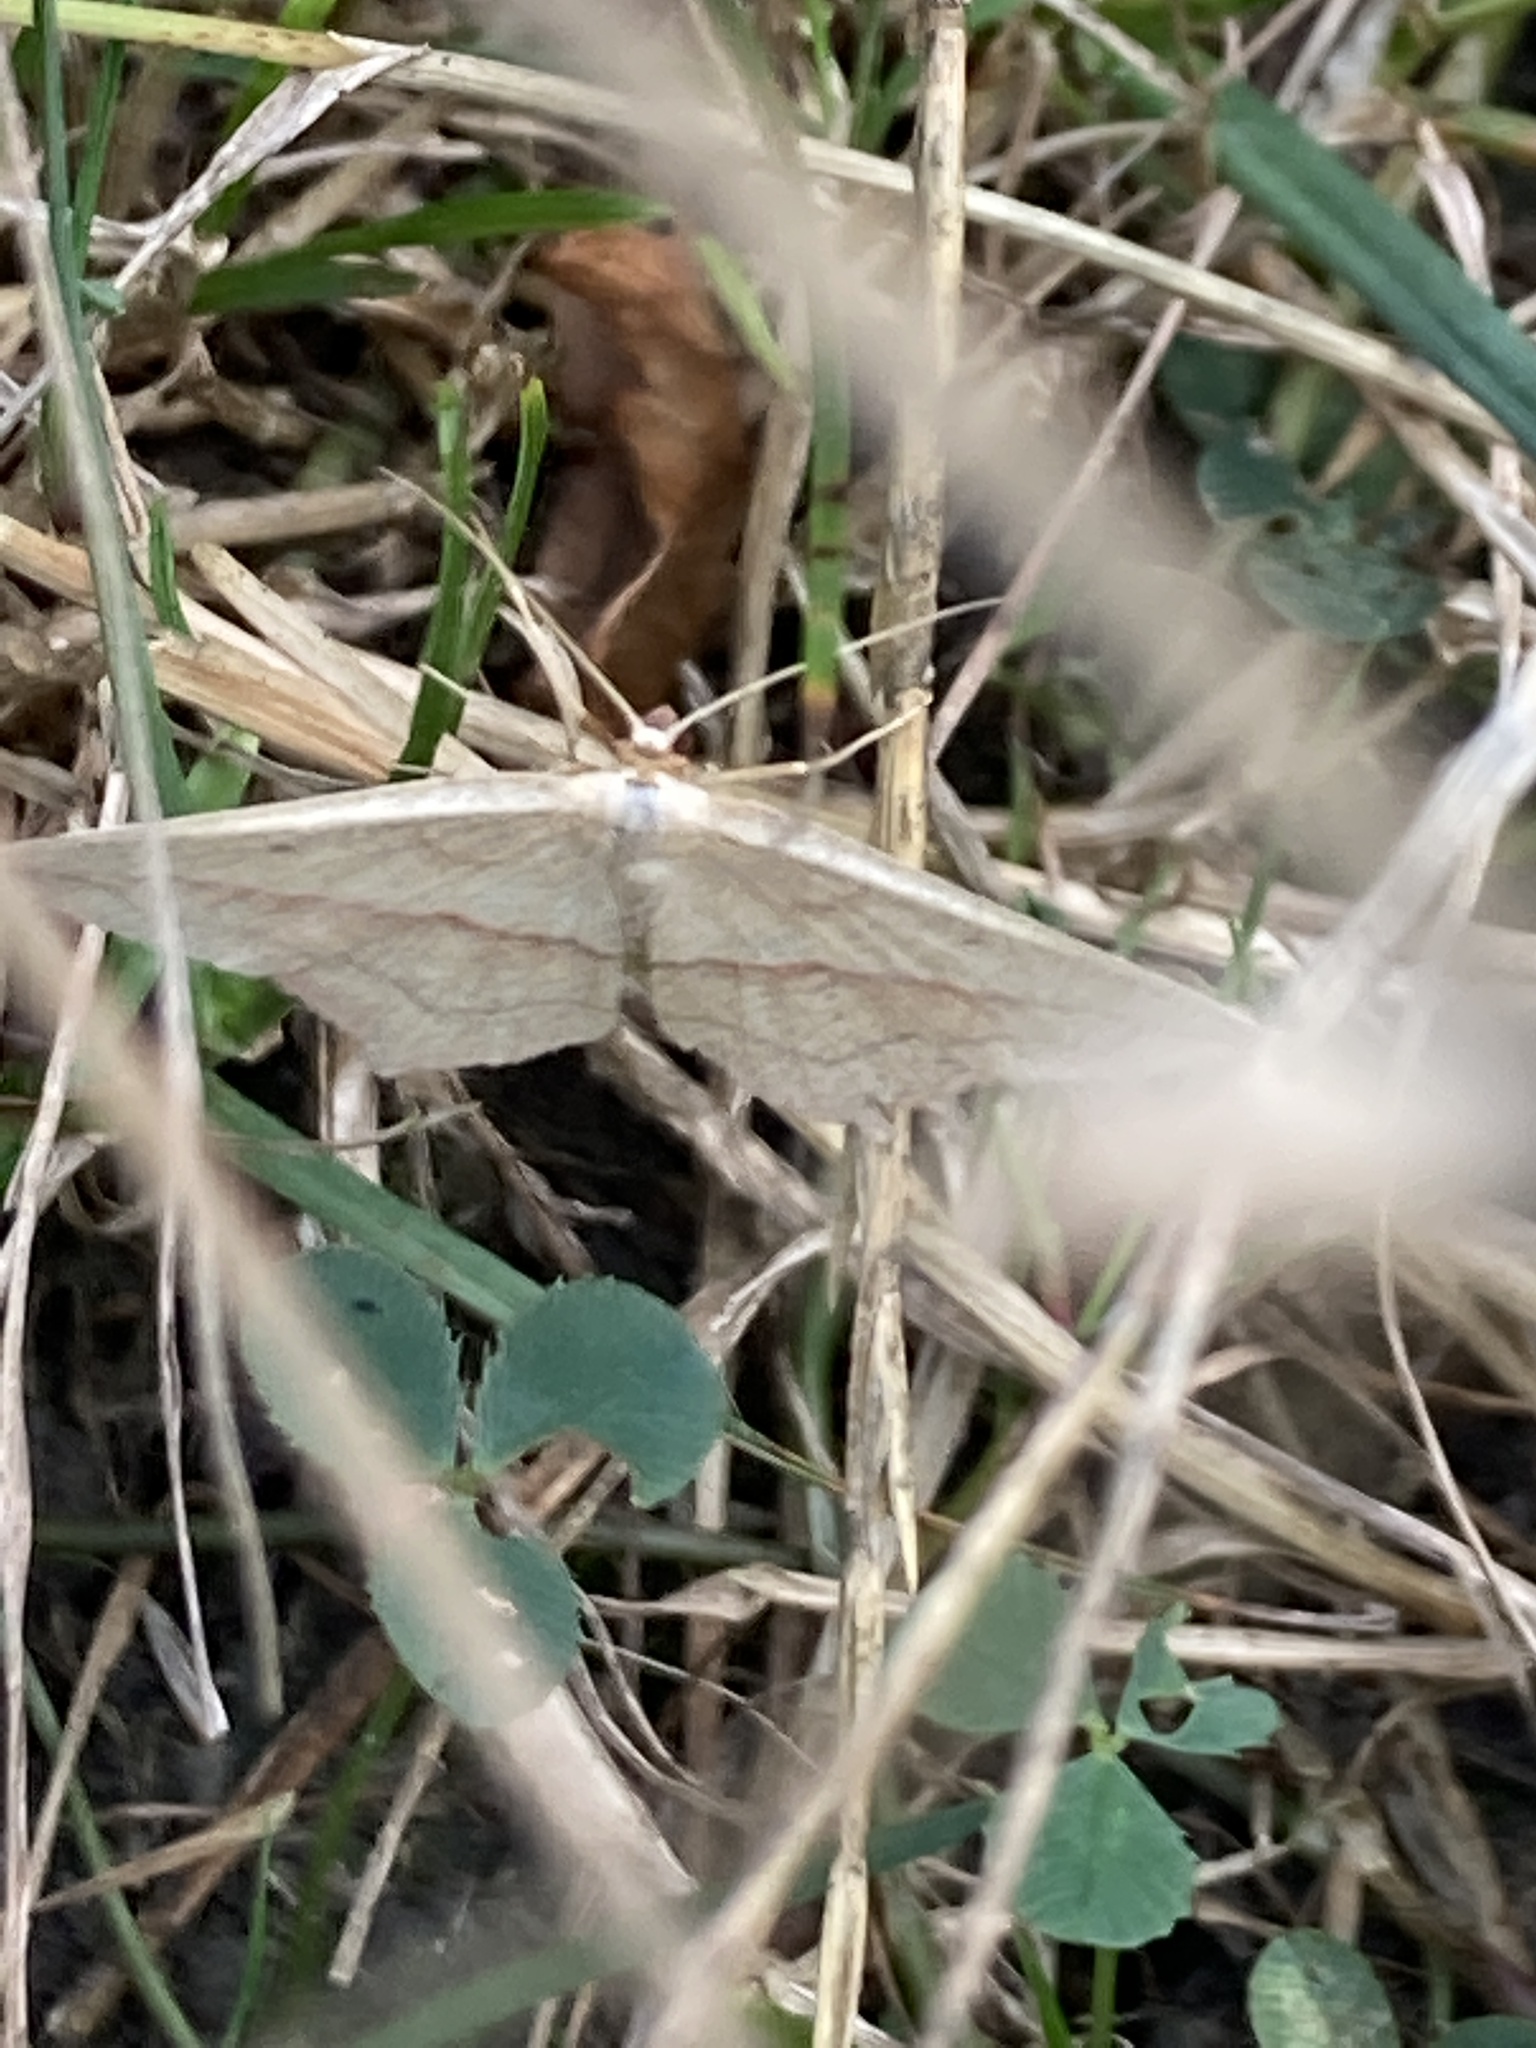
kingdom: Animalia
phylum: Arthropoda
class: Insecta
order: Lepidoptera
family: Geometridae
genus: Timandra
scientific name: Timandra comae
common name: Blood-vein
